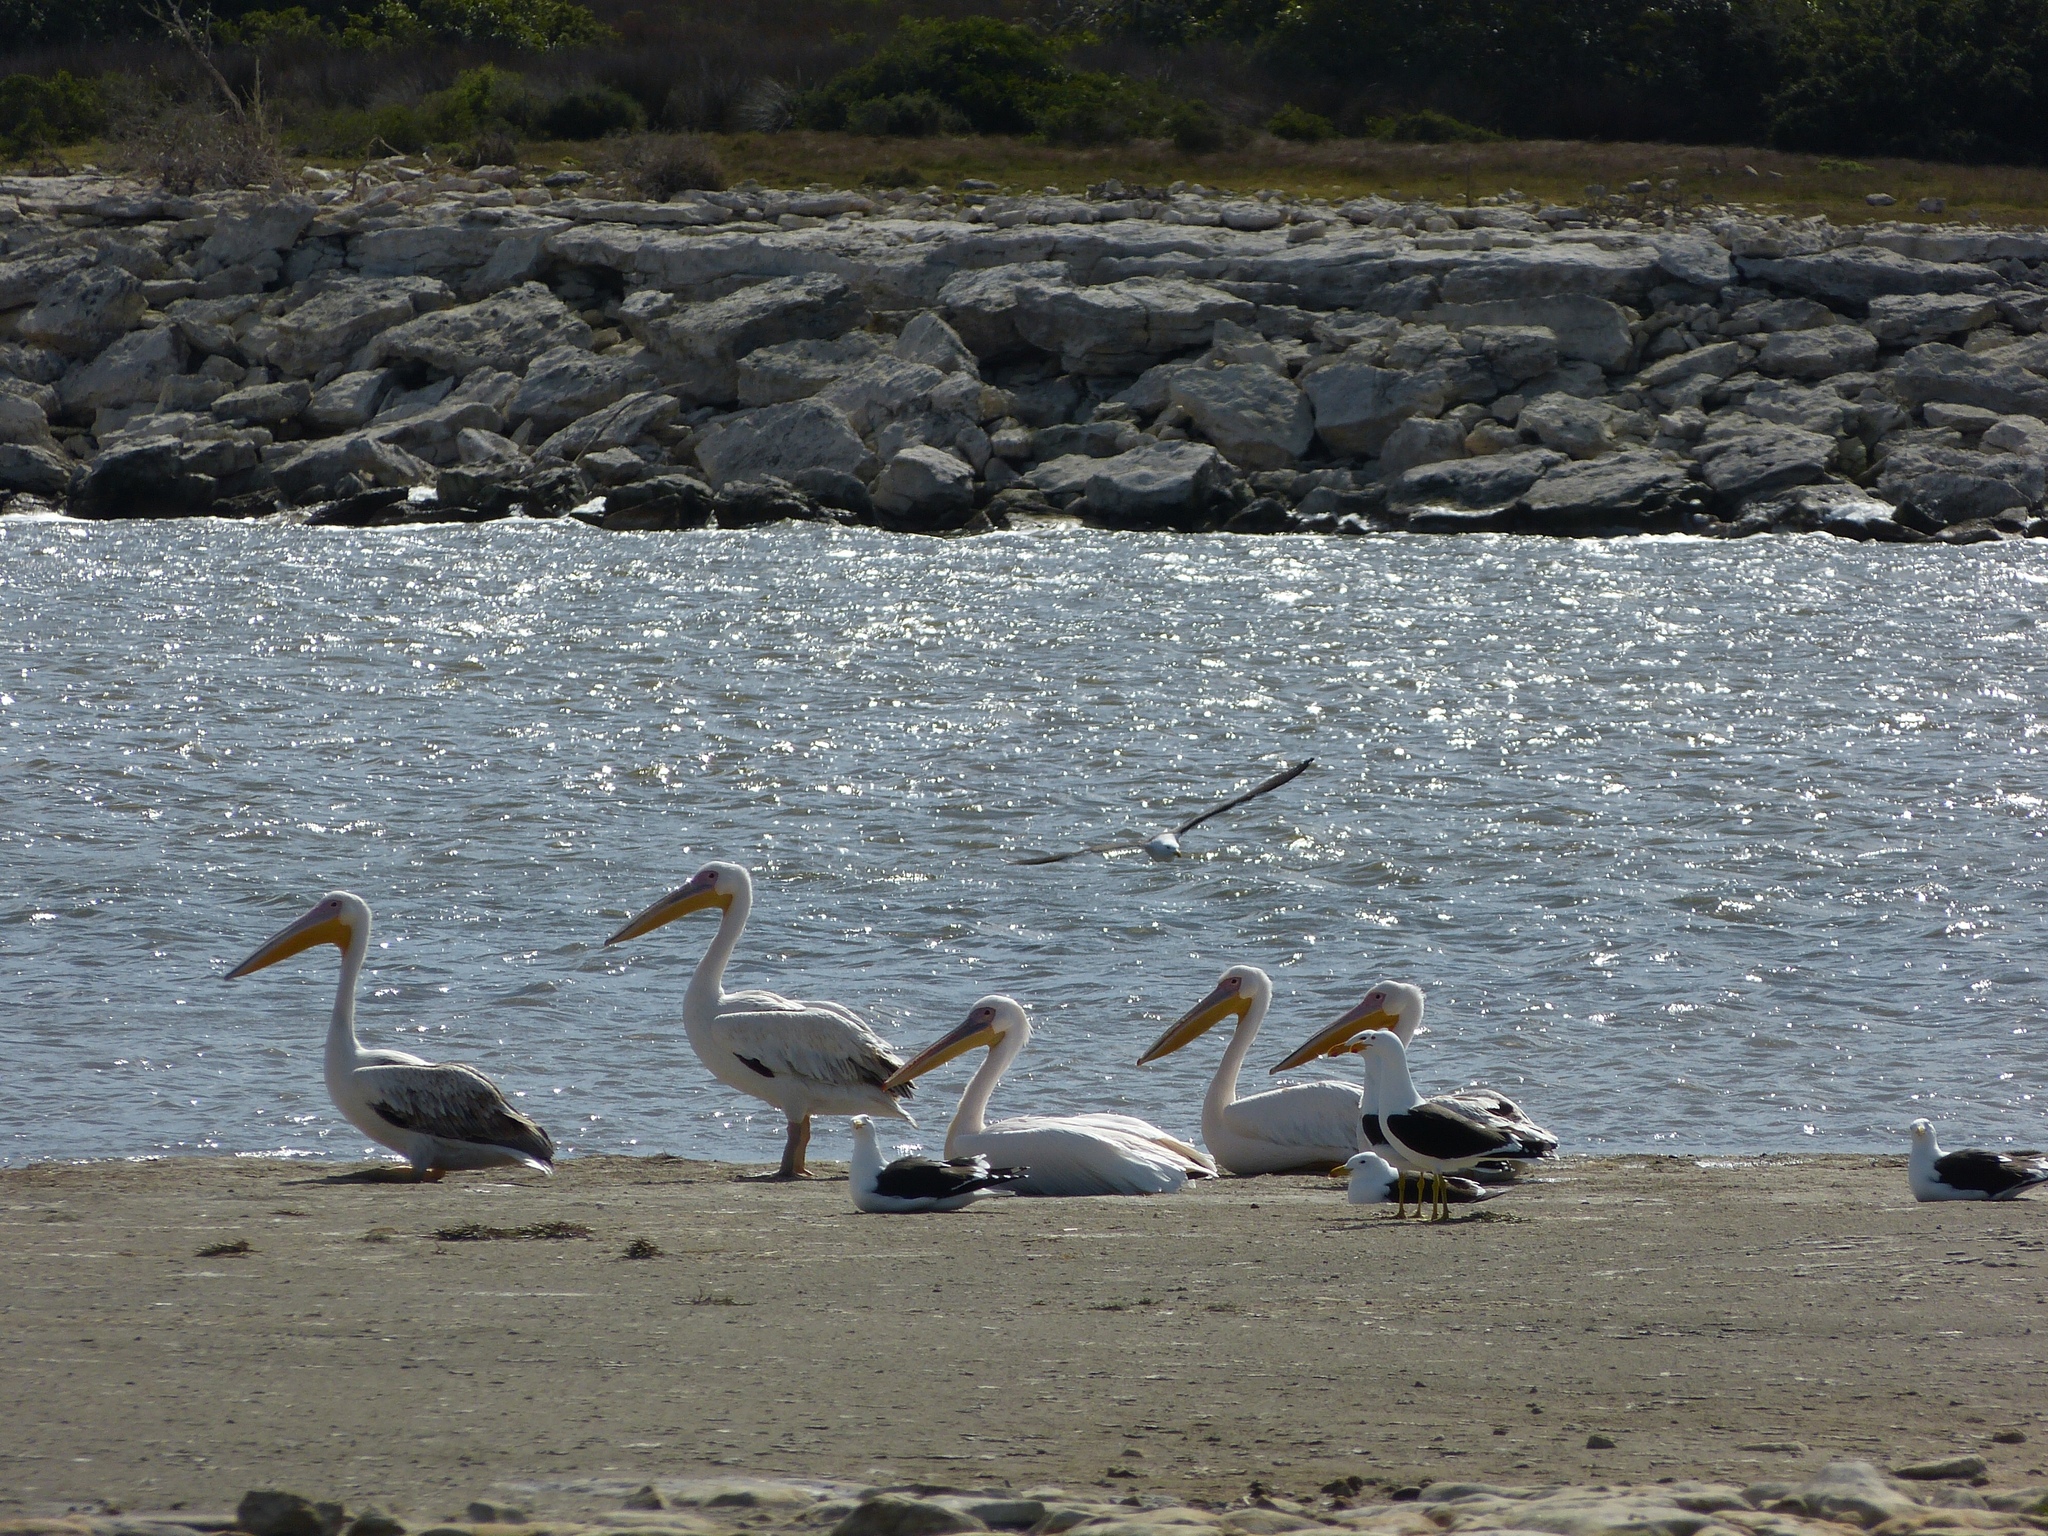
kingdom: Animalia
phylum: Chordata
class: Aves
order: Pelecaniformes
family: Pelecanidae
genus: Pelecanus
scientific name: Pelecanus onocrotalus
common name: Great white pelican
